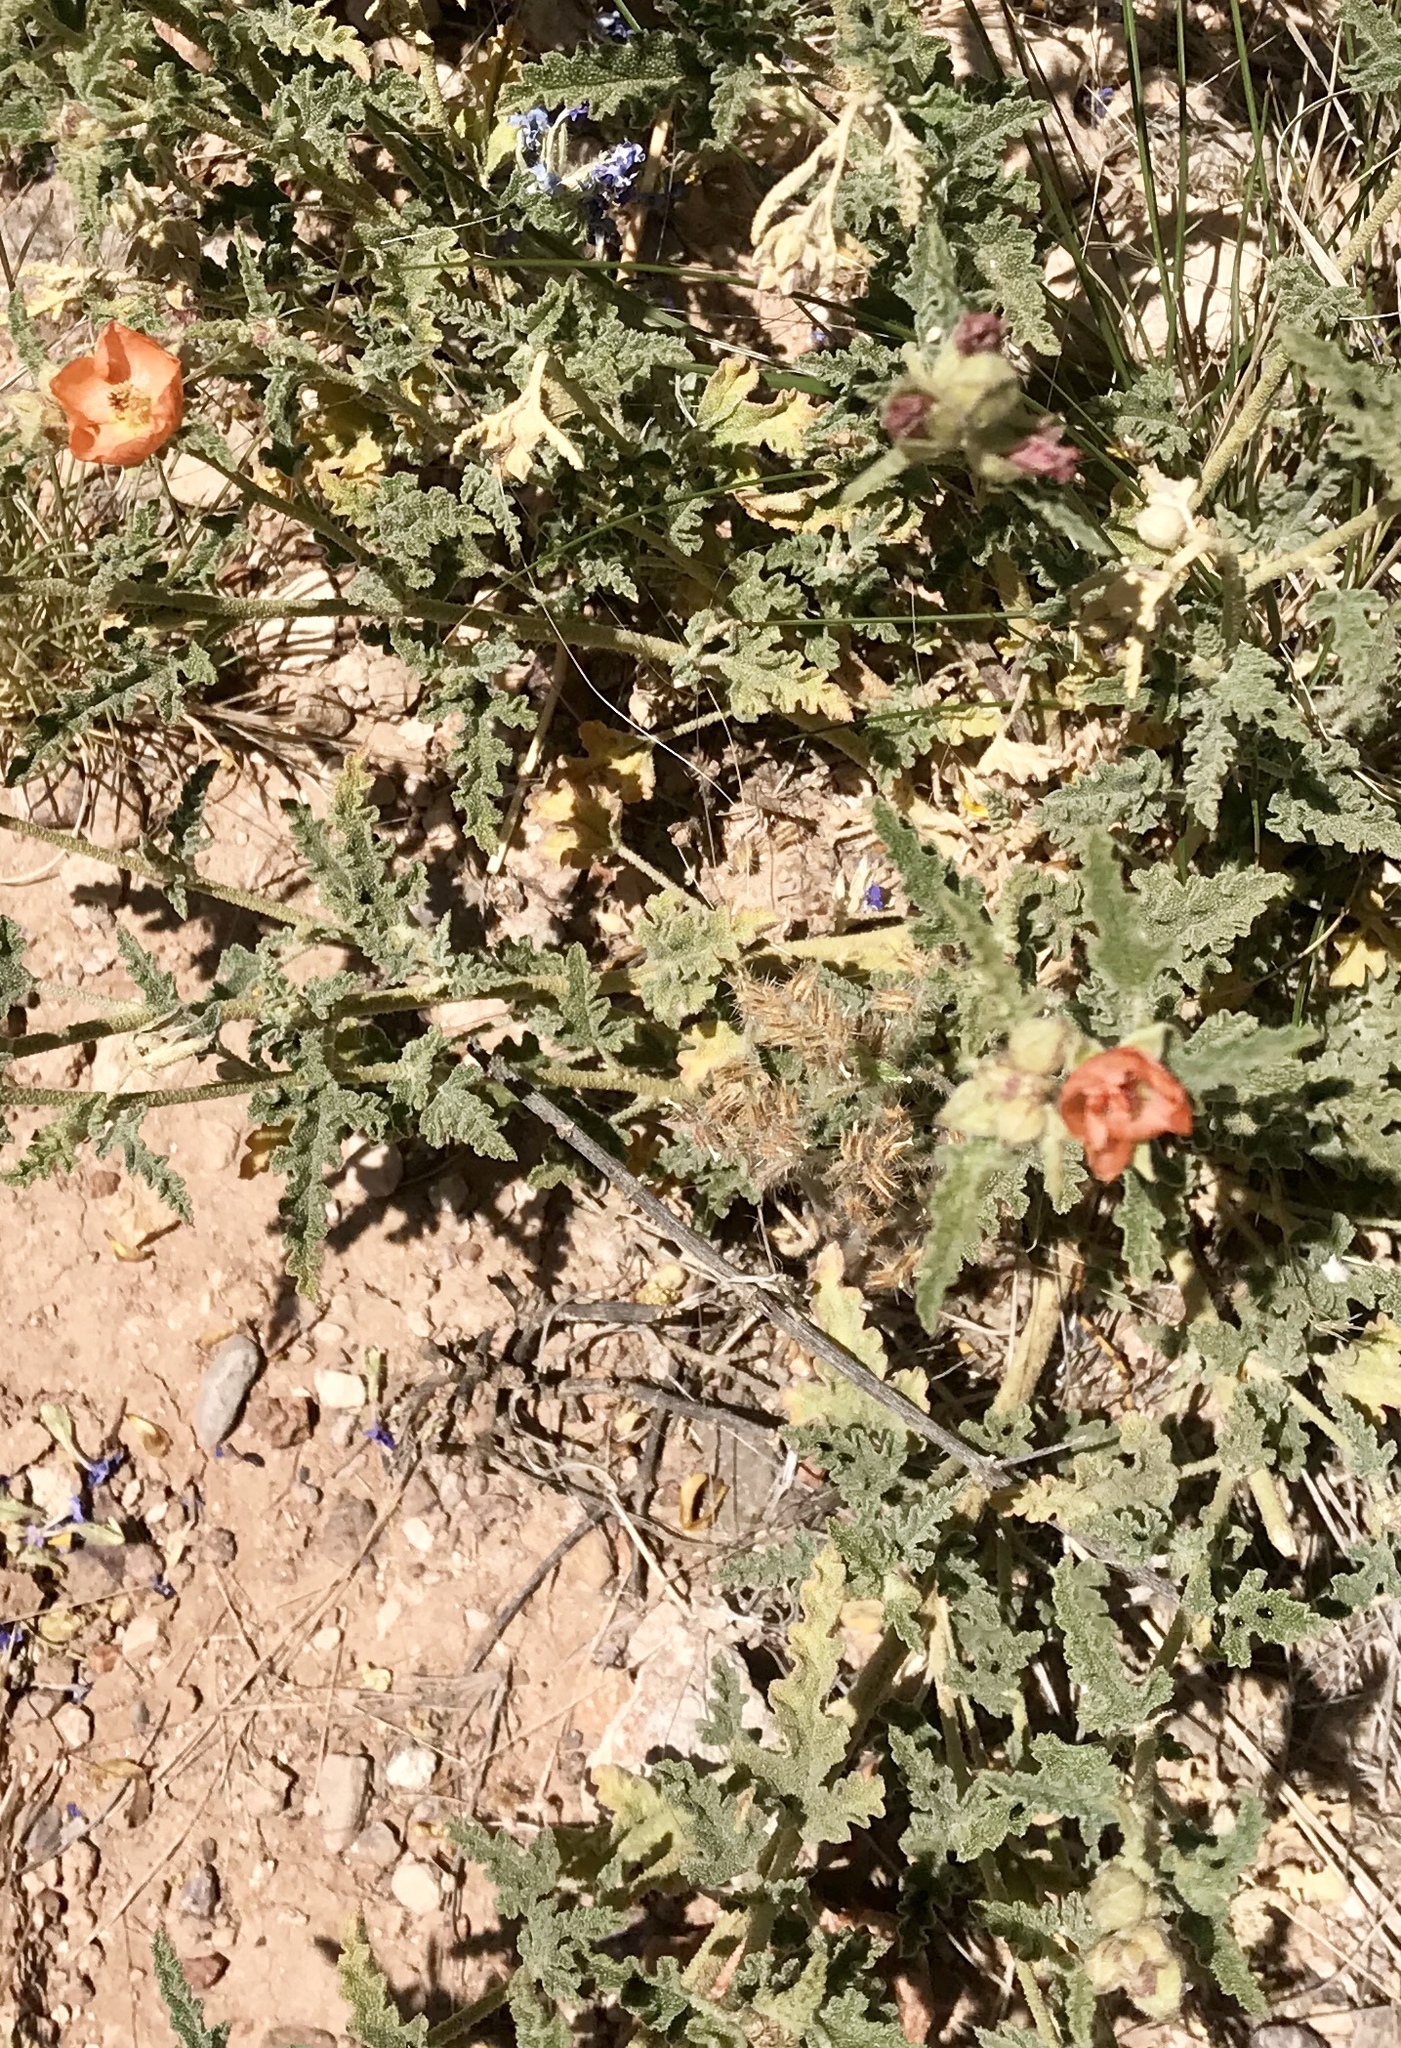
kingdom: Plantae
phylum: Tracheophyta
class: Magnoliopsida
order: Malvales
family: Malvaceae
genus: Sphaeralcea
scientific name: Sphaeralcea hastulata
